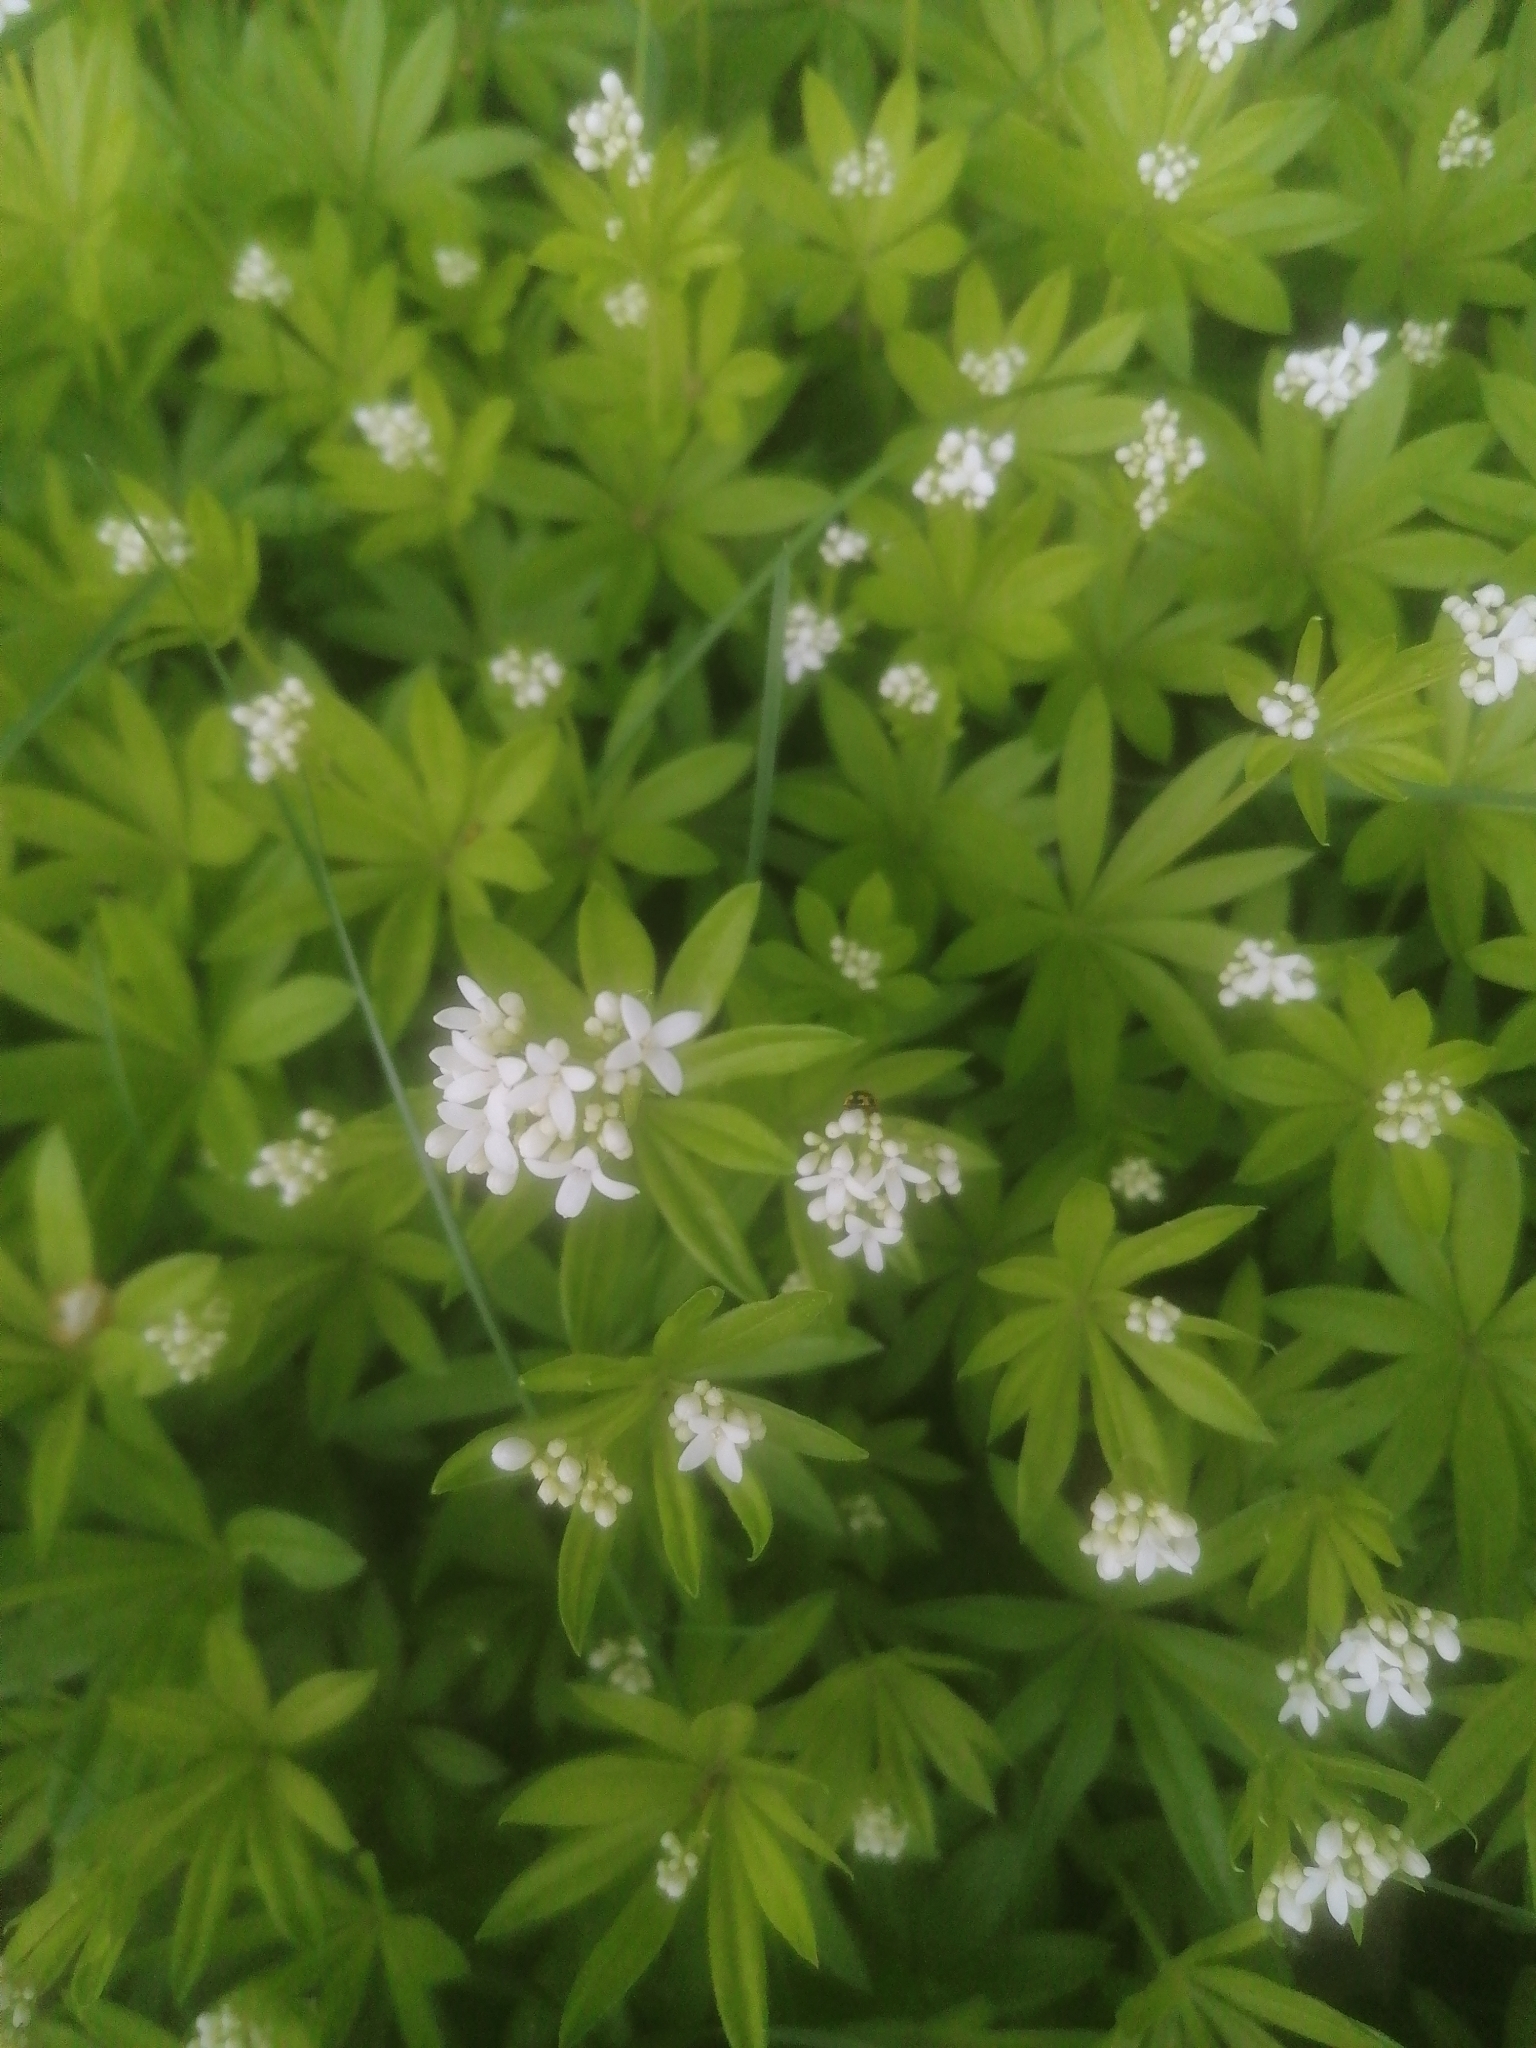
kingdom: Plantae
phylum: Tracheophyta
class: Magnoliopsida
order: Gentianales
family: Rubiaceae
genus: Galium
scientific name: Galium odoratum
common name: Sweet woodruff
